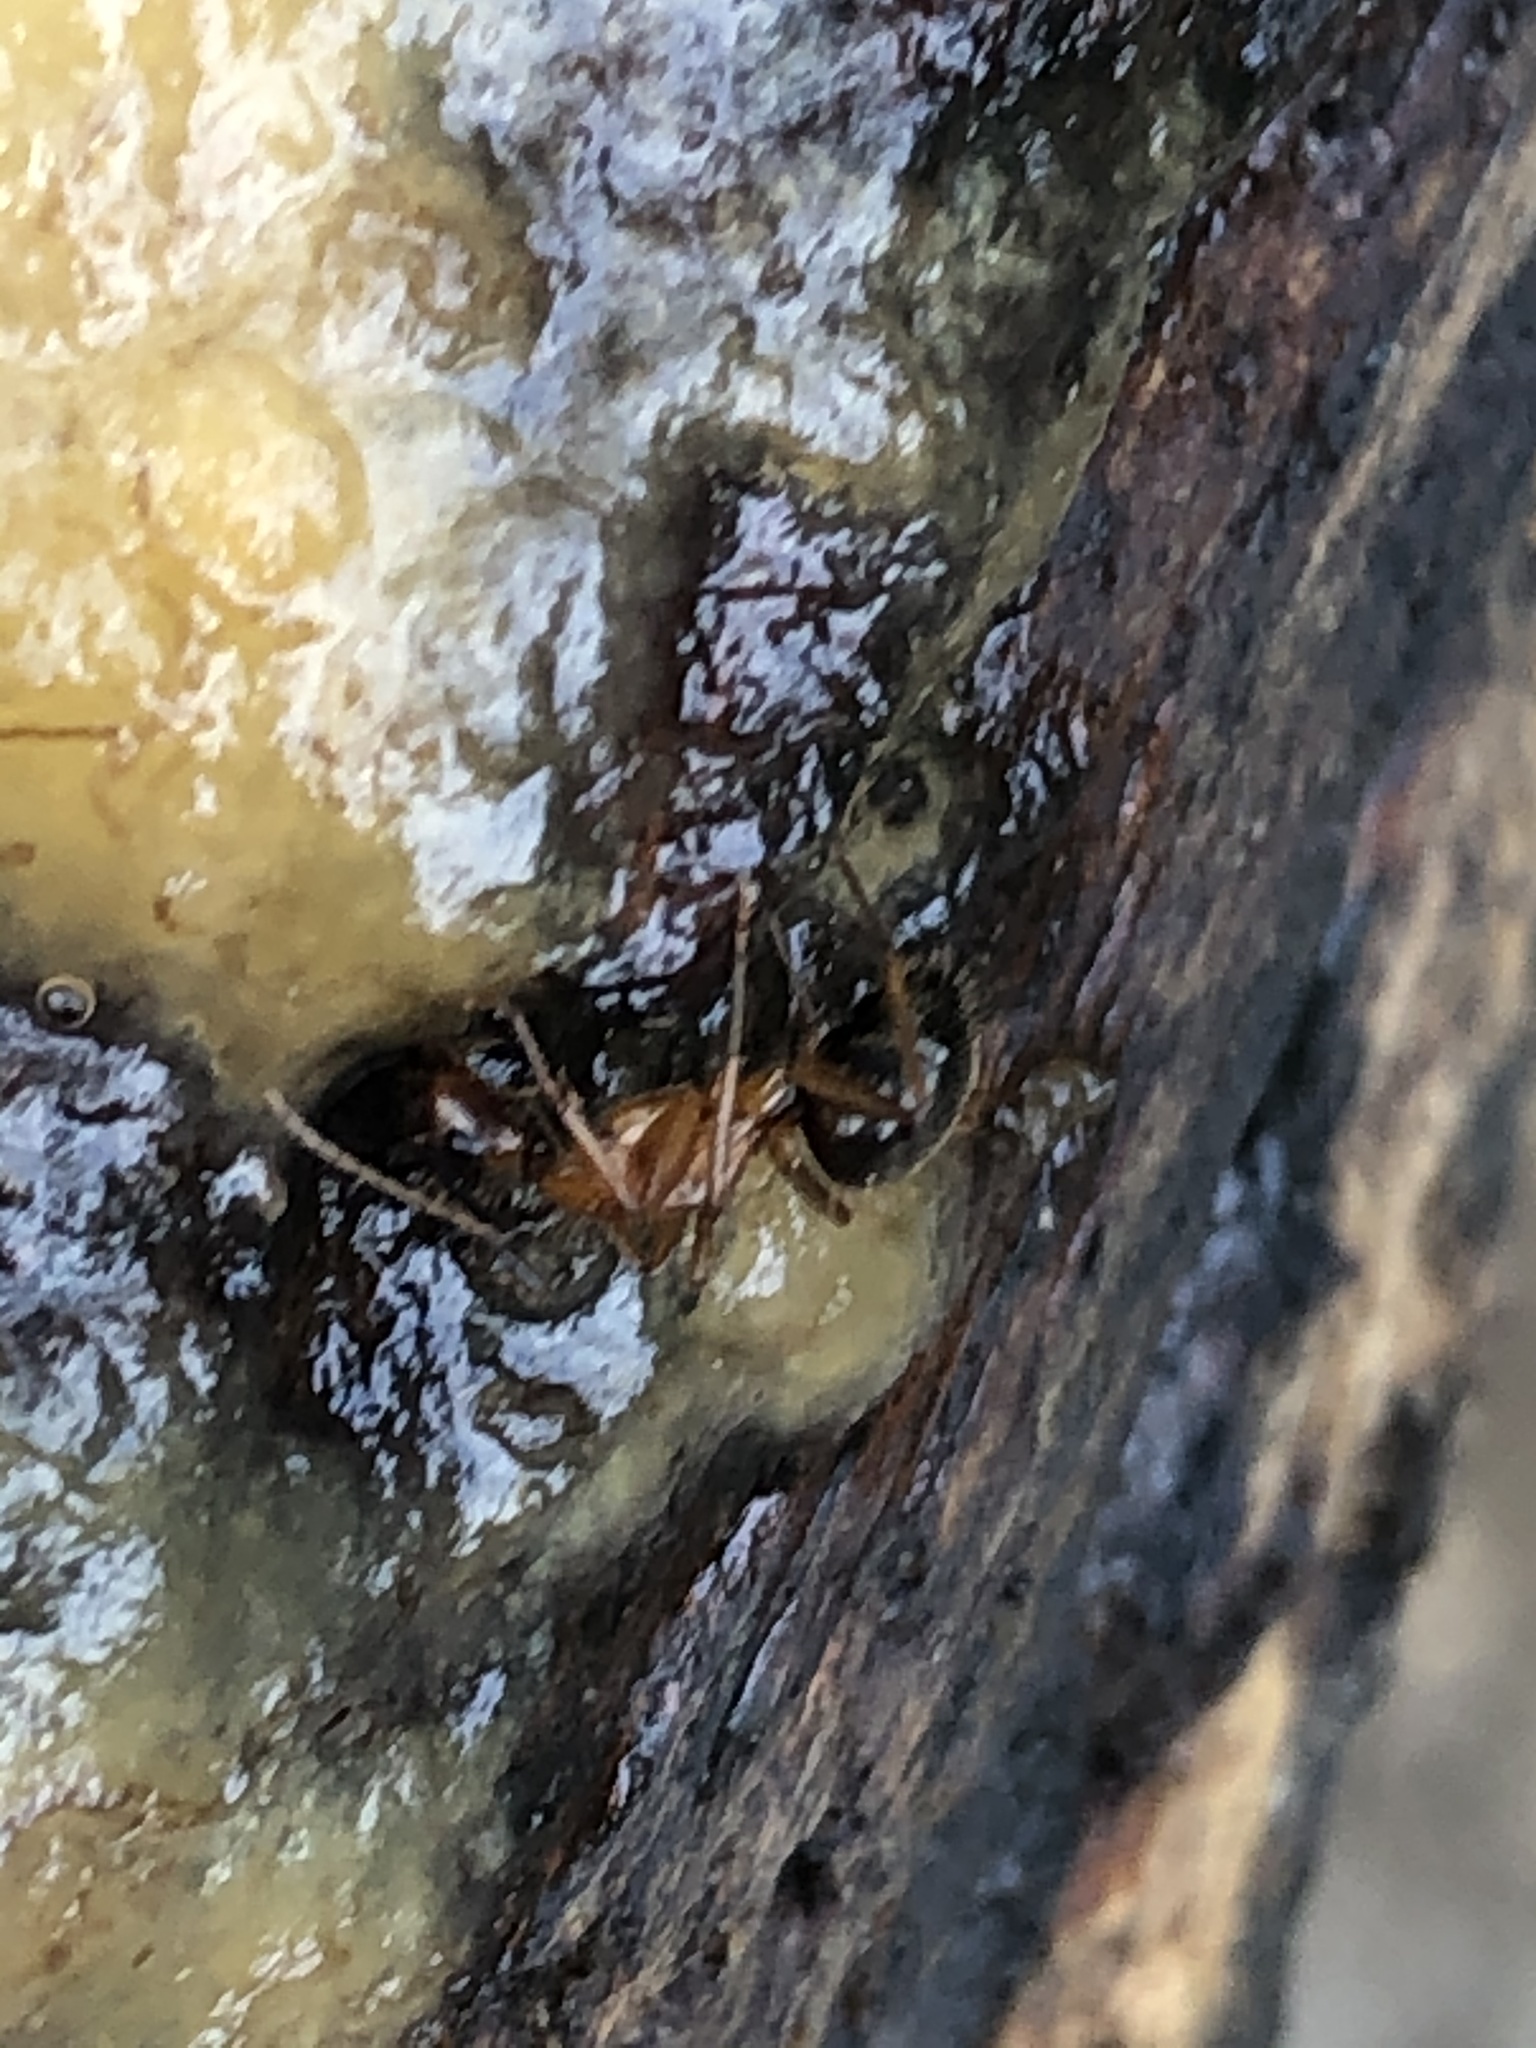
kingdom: Animalia
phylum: Arthropoda
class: Insecta
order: Hymenoptera
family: Formicidae
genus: Camponotus
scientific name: Camponotus atriceps
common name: Florida carpenter ant
